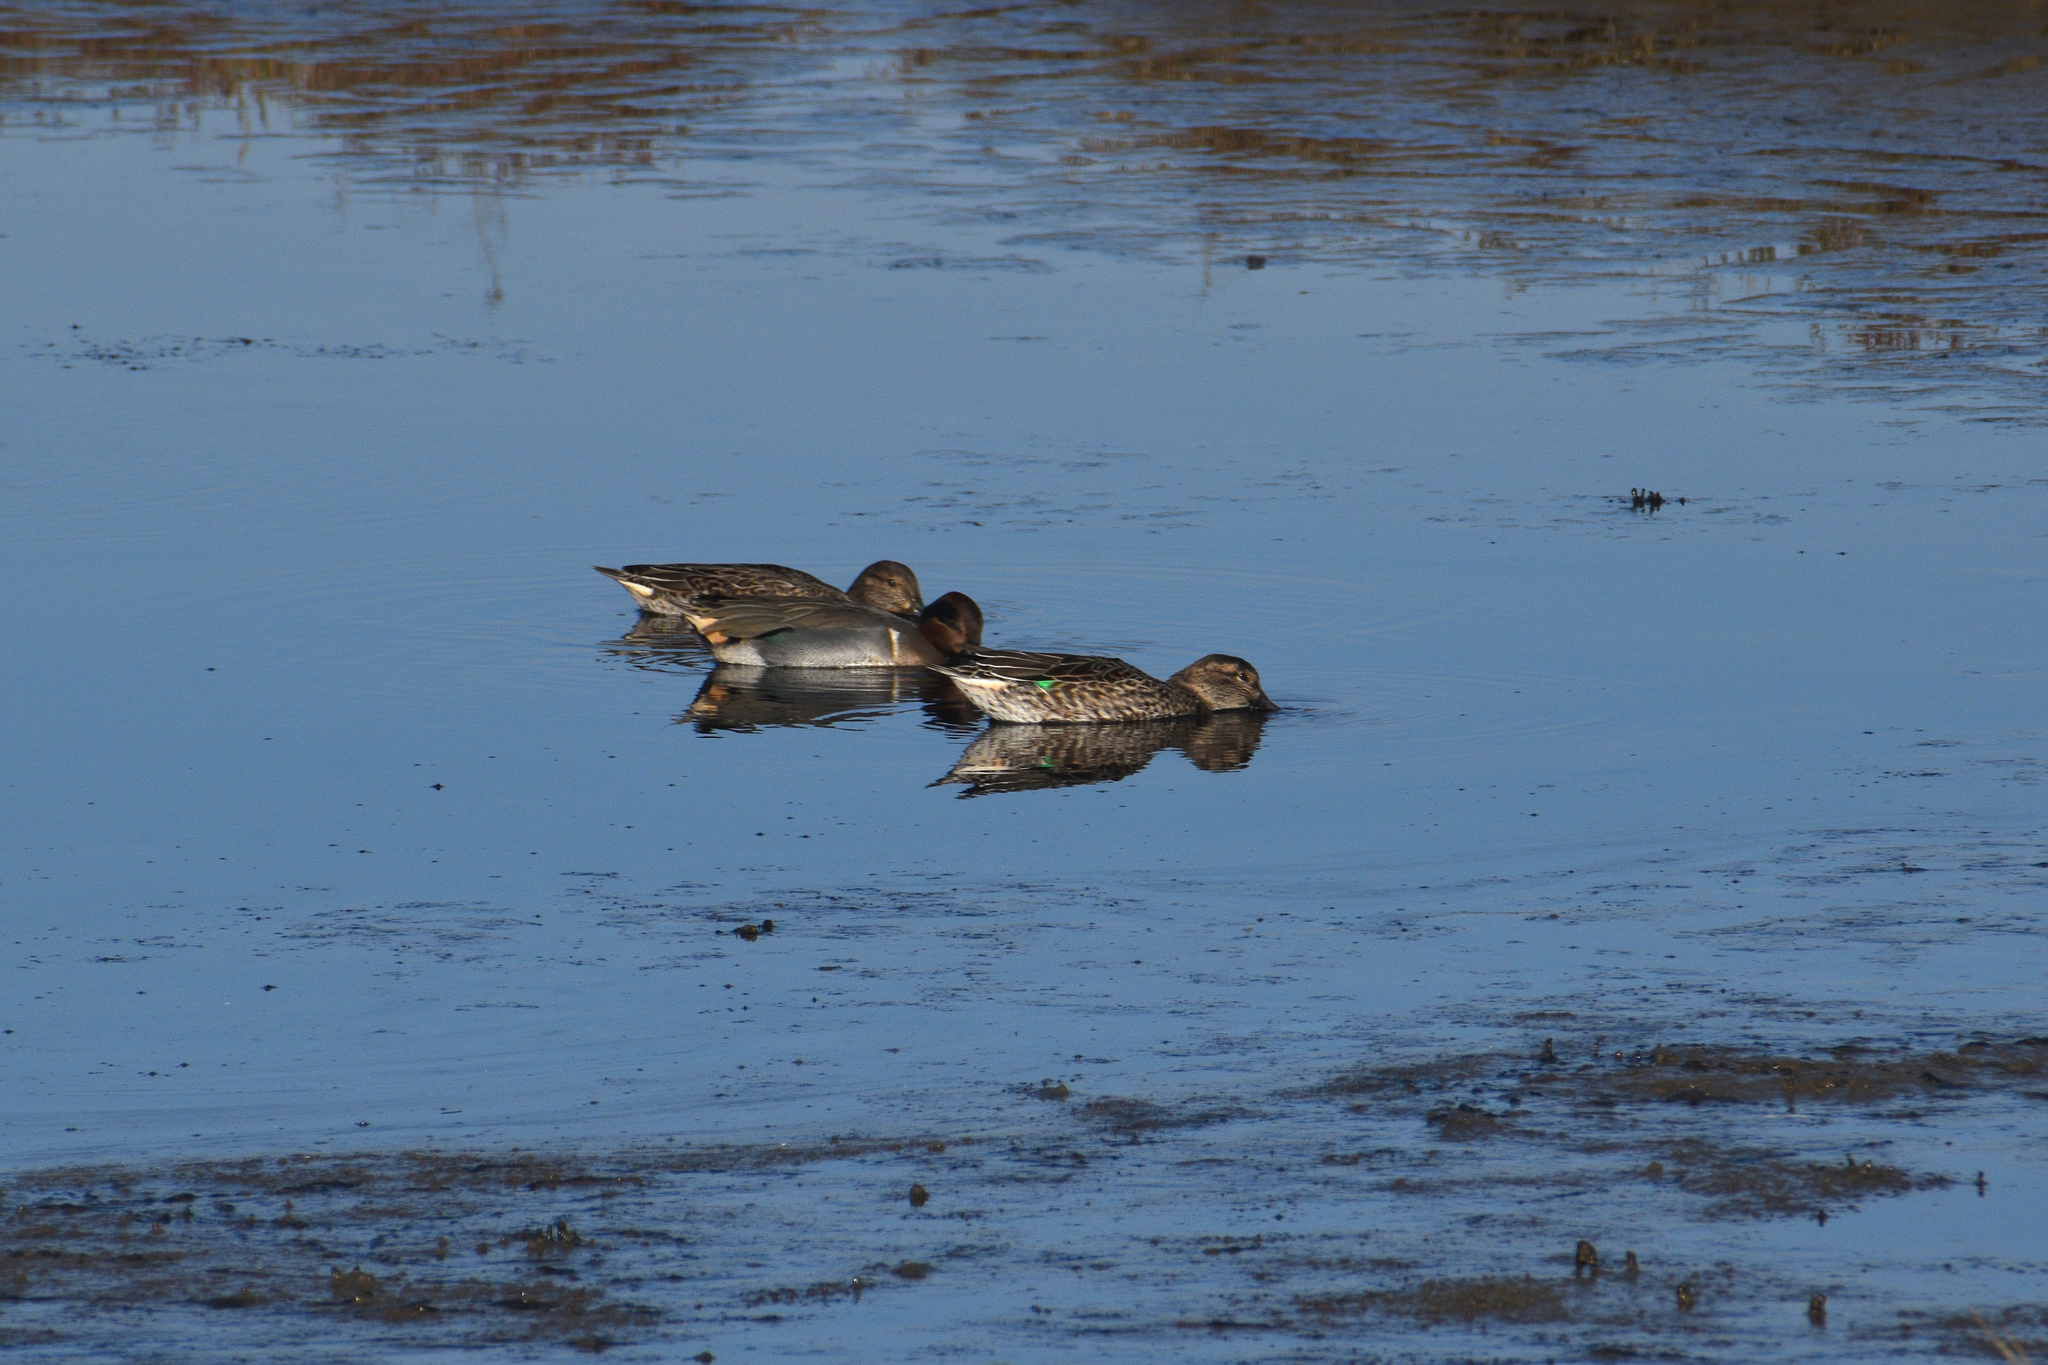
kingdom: Animalia
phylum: Chordata
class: Aves
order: Anseriformes
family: Anatidae
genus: Anas
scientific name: Anas crecca
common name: Eurasian teal
